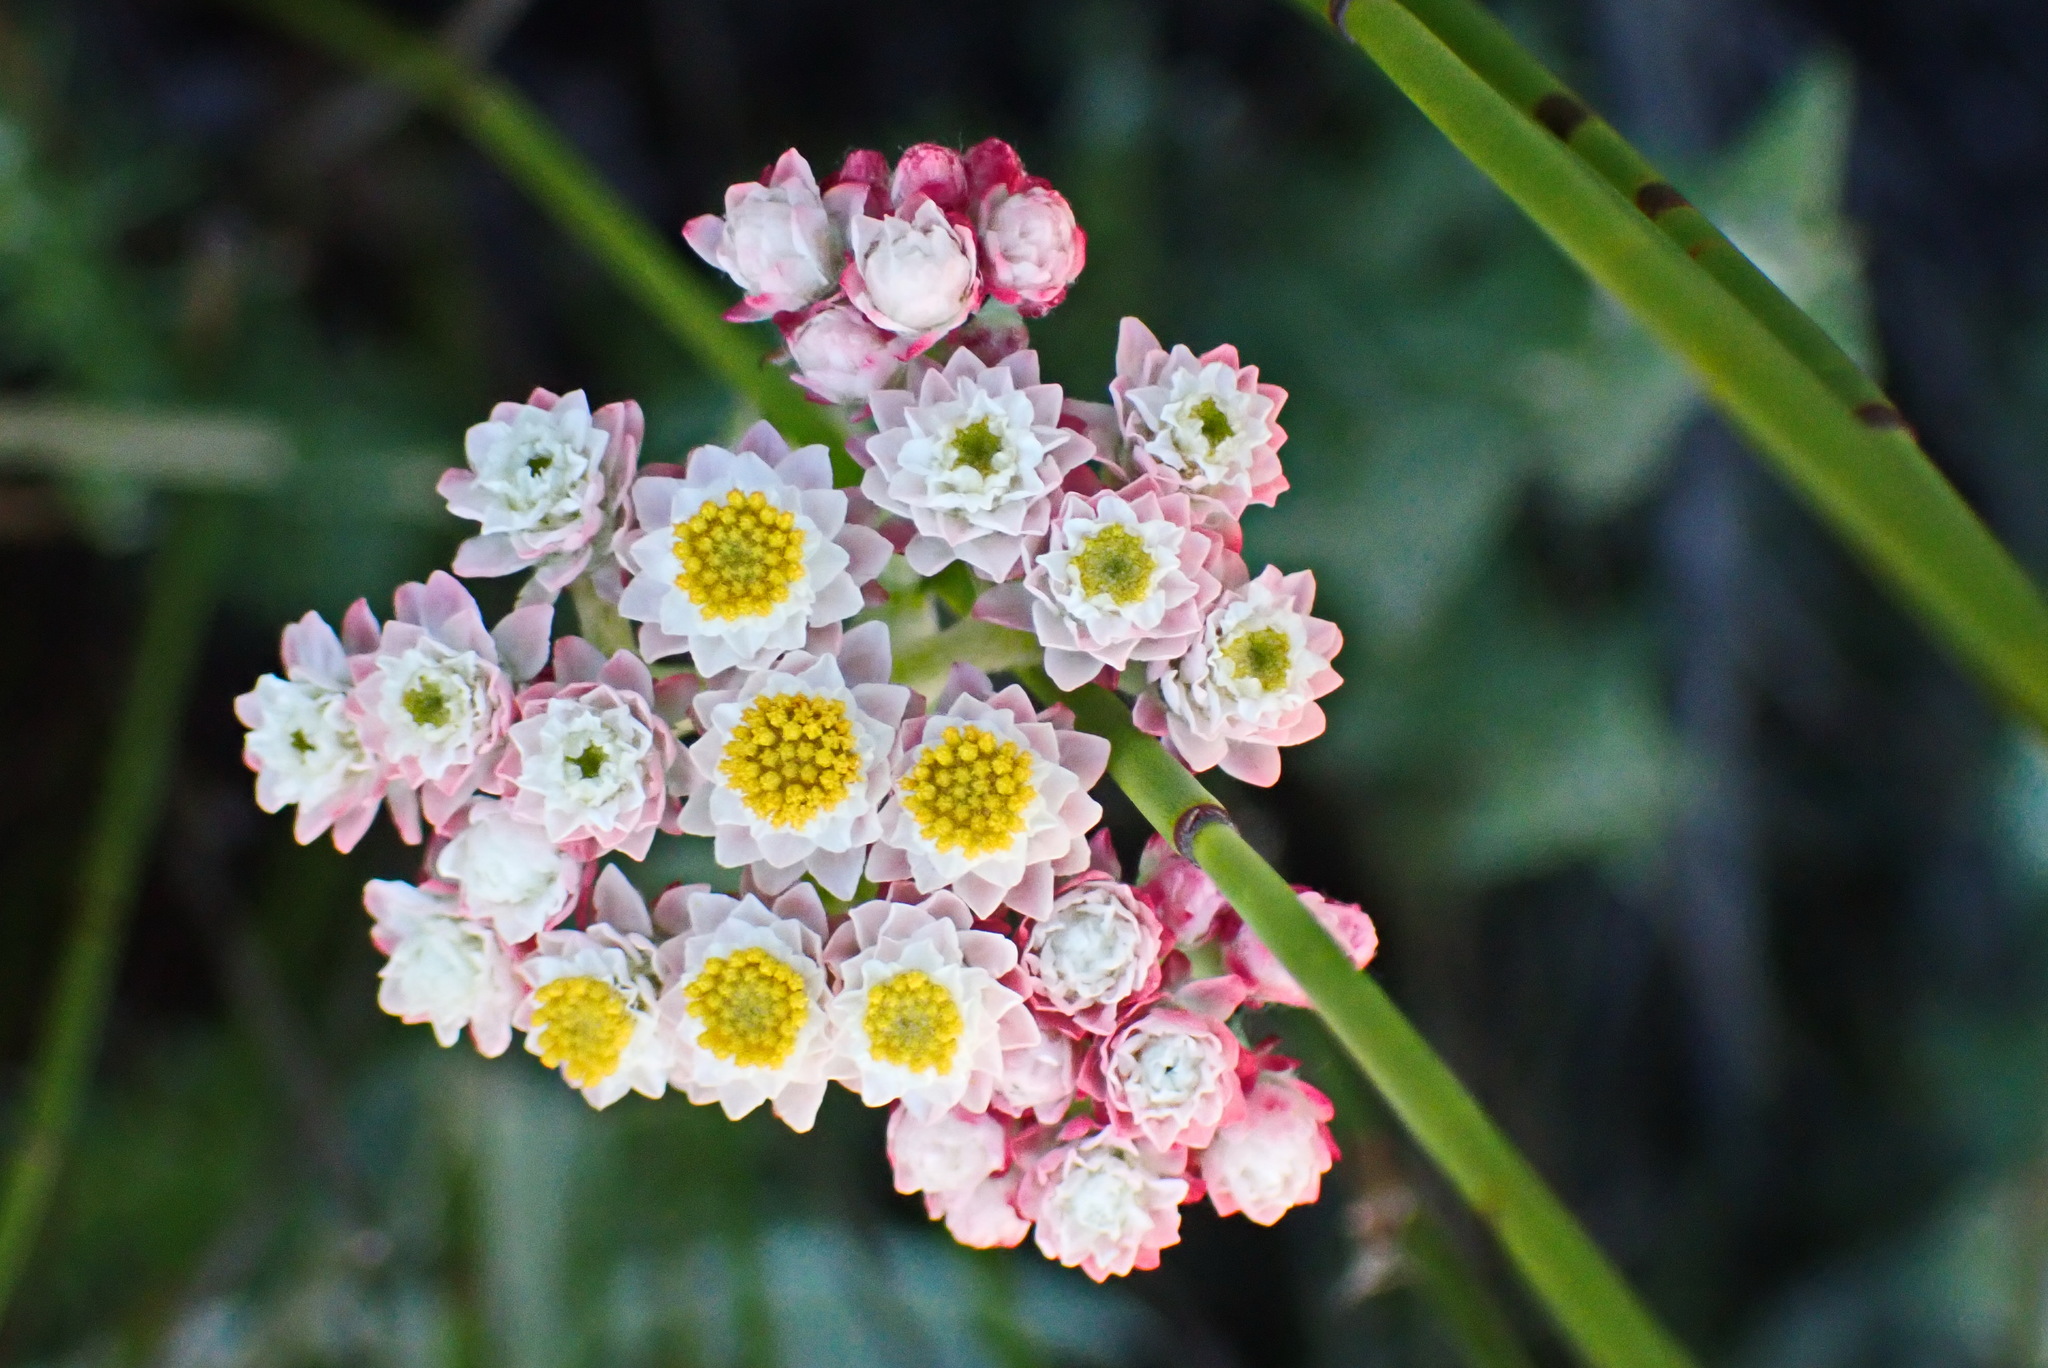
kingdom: Plantae
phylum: Tracheophyta
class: Magnoliopsida
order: Asterales
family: Asteraceae
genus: Helichrysum
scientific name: Helichrysum felinum
